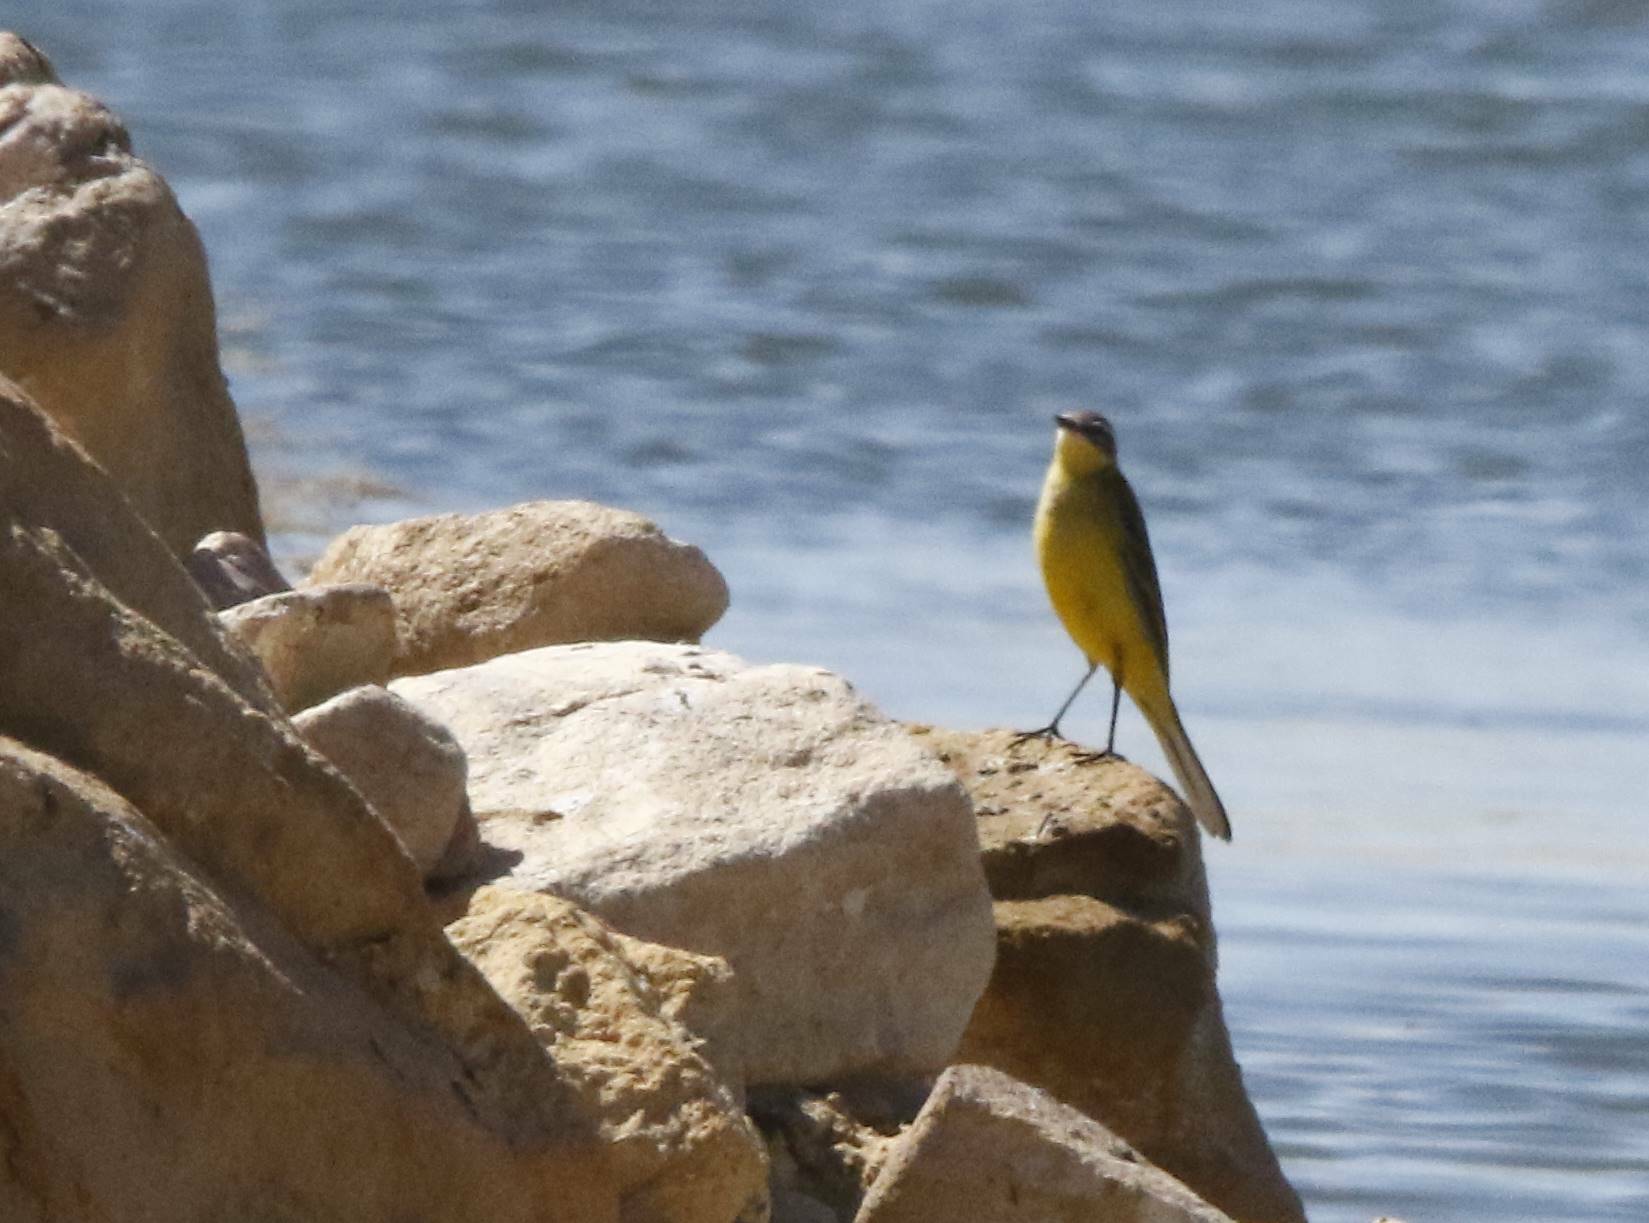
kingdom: Animalia
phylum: Chordata
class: Aves
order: Passeriformes
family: Motacillidae
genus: Motacilla
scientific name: Motacilla flava
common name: Western yellow wagtail
